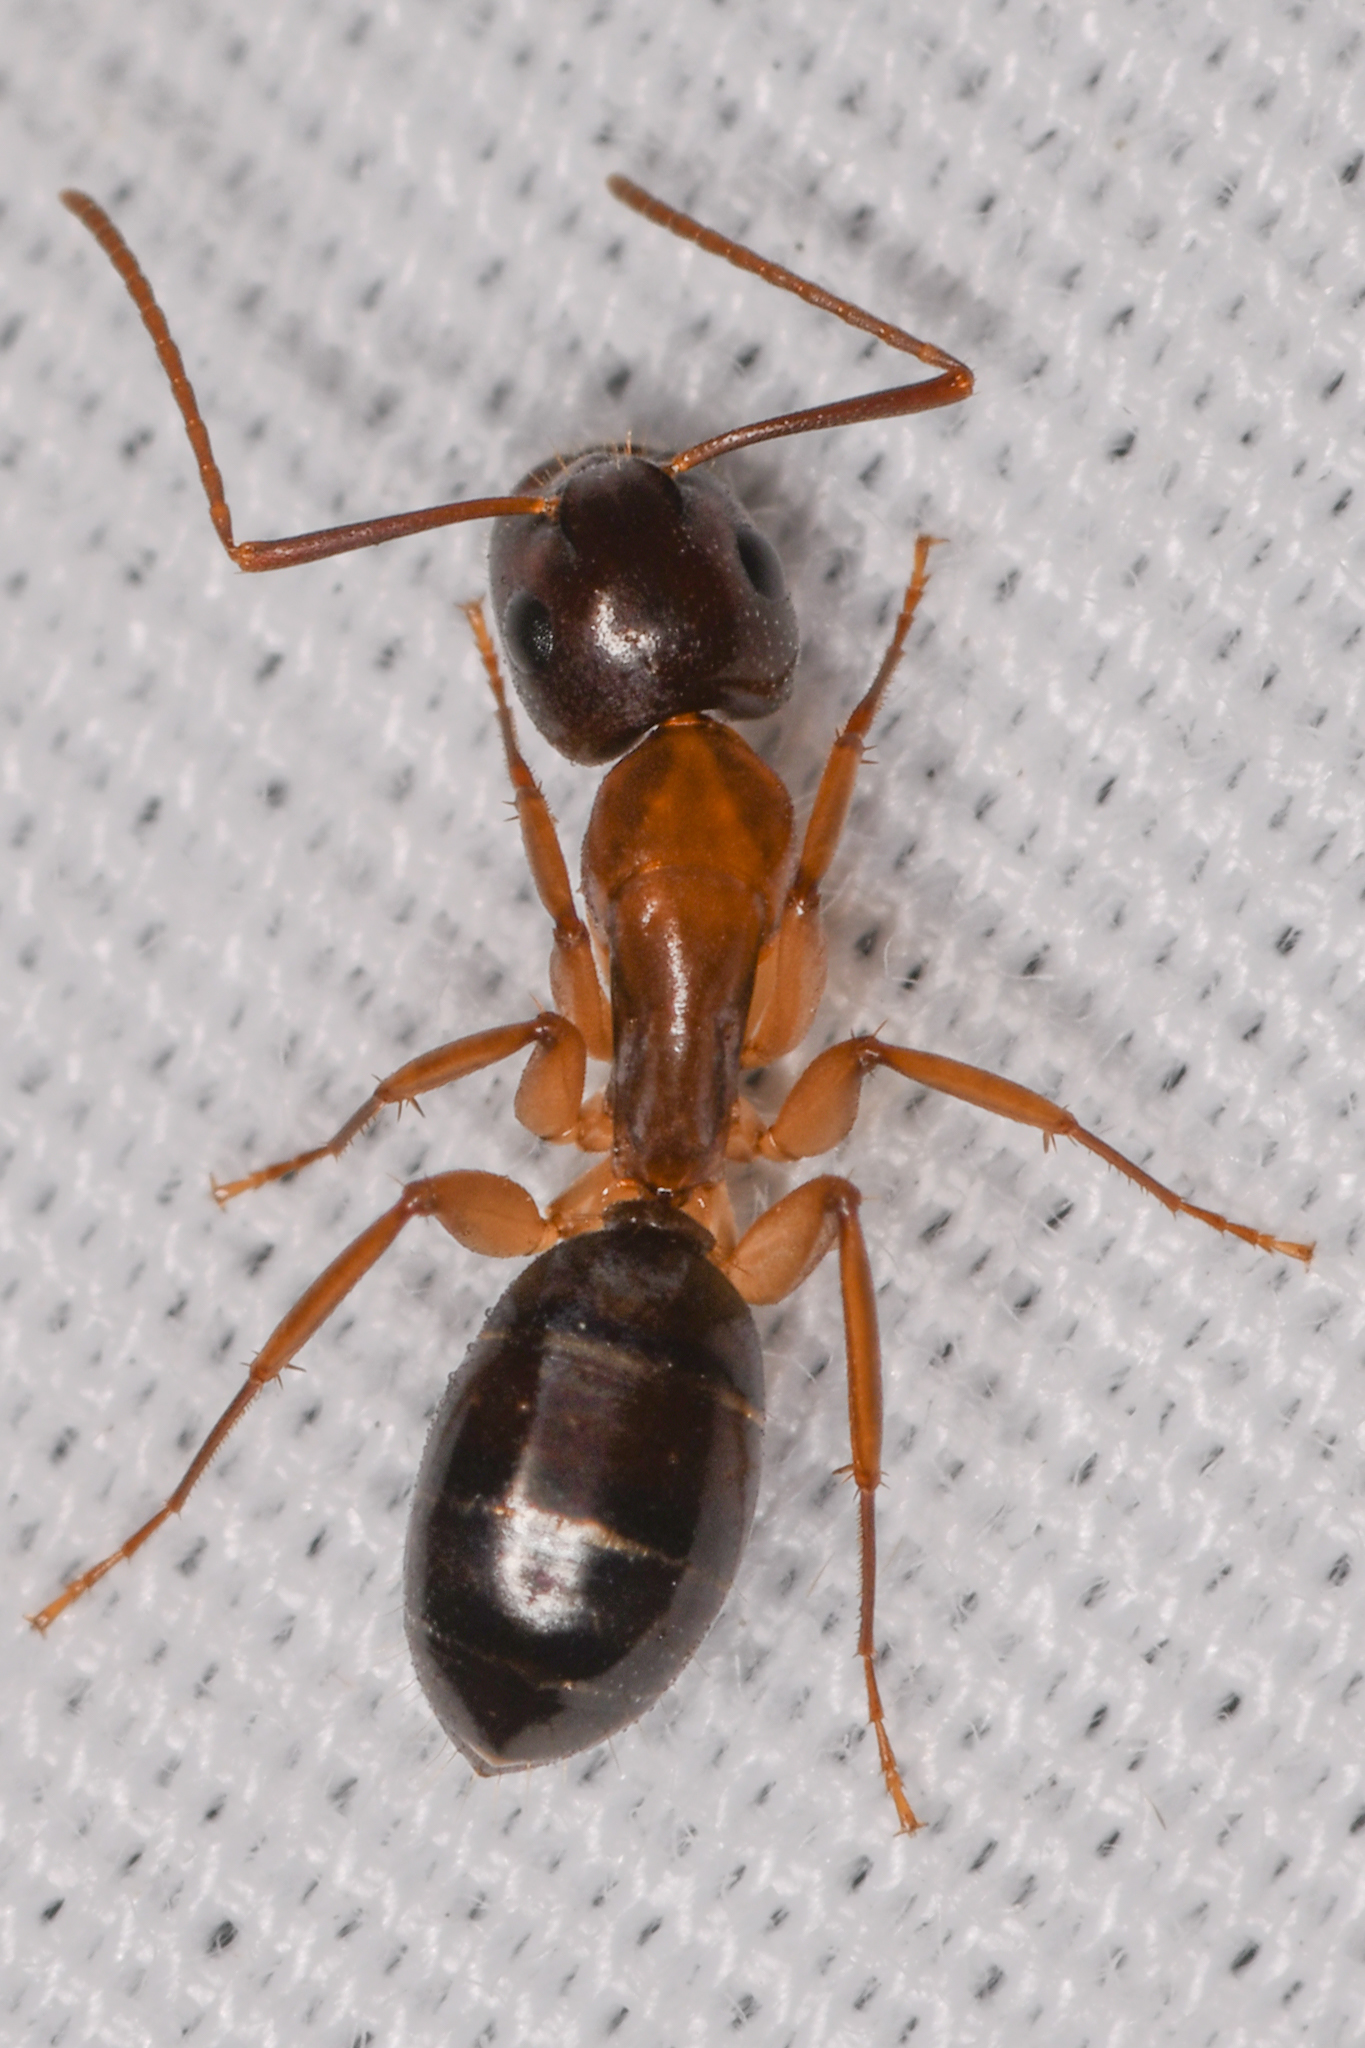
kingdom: Animalia
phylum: Arthropoda
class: Insecta
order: Hymenoptera
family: Formicidae
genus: Camponotus
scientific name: Camponotus clarithorax
